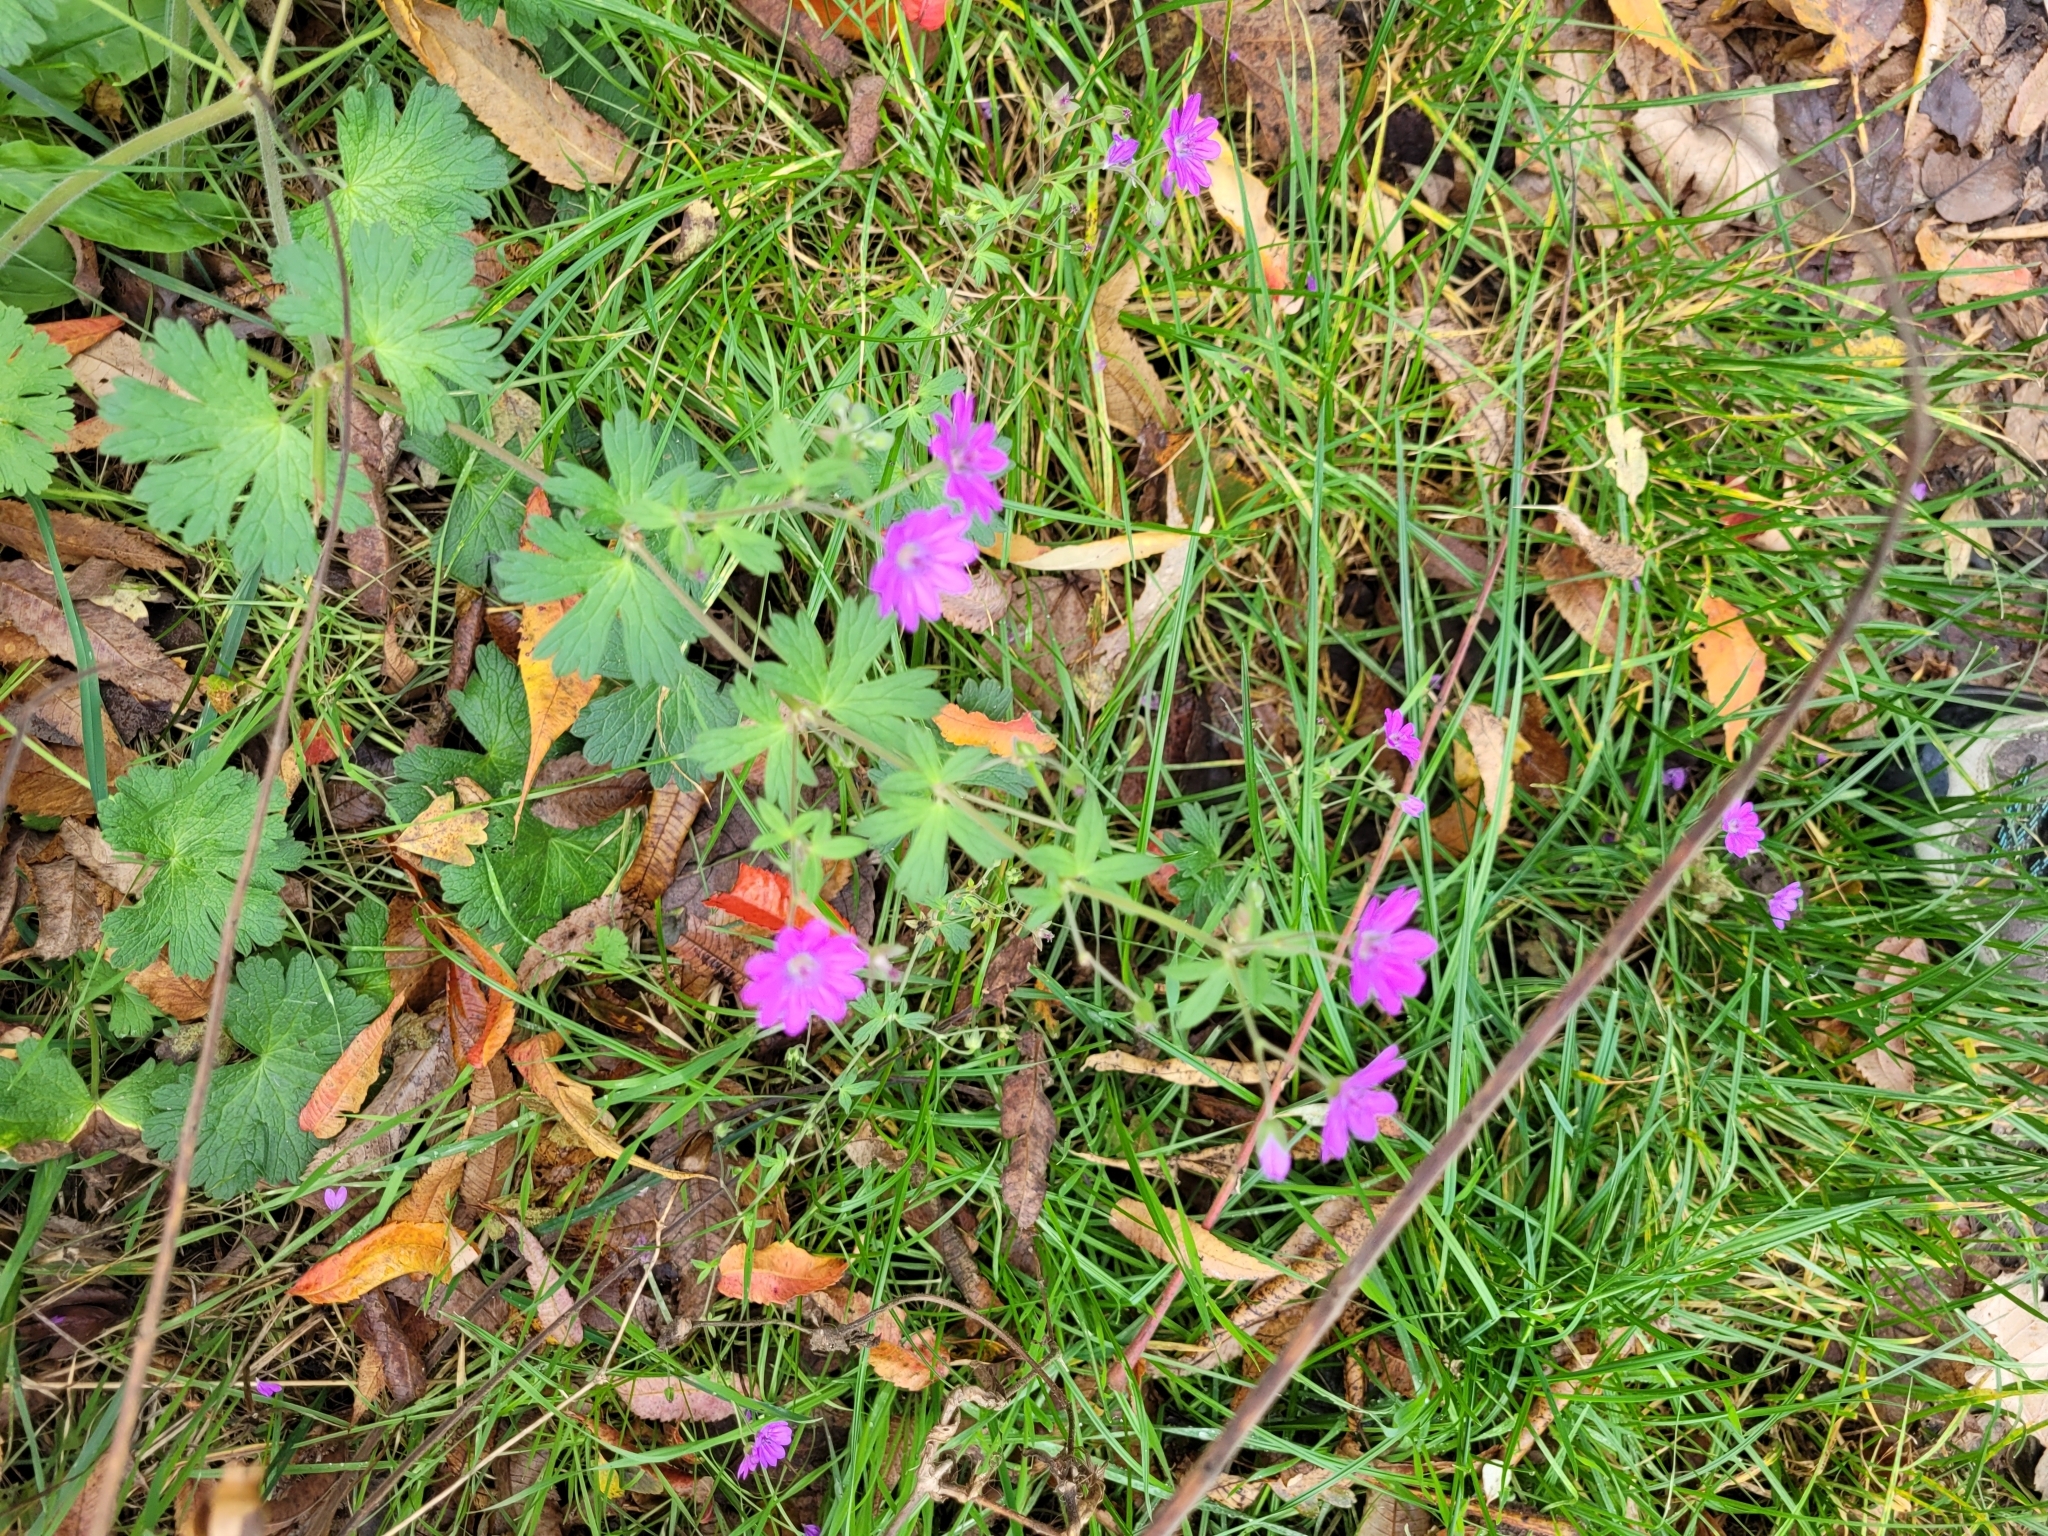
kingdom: Plantae
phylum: Tracheophyta
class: Magnoliopsida
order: Geraniales
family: Geraniaceae
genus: Geranium
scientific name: Geranium pyrenaicum
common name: Hedgerow crane's-bill
